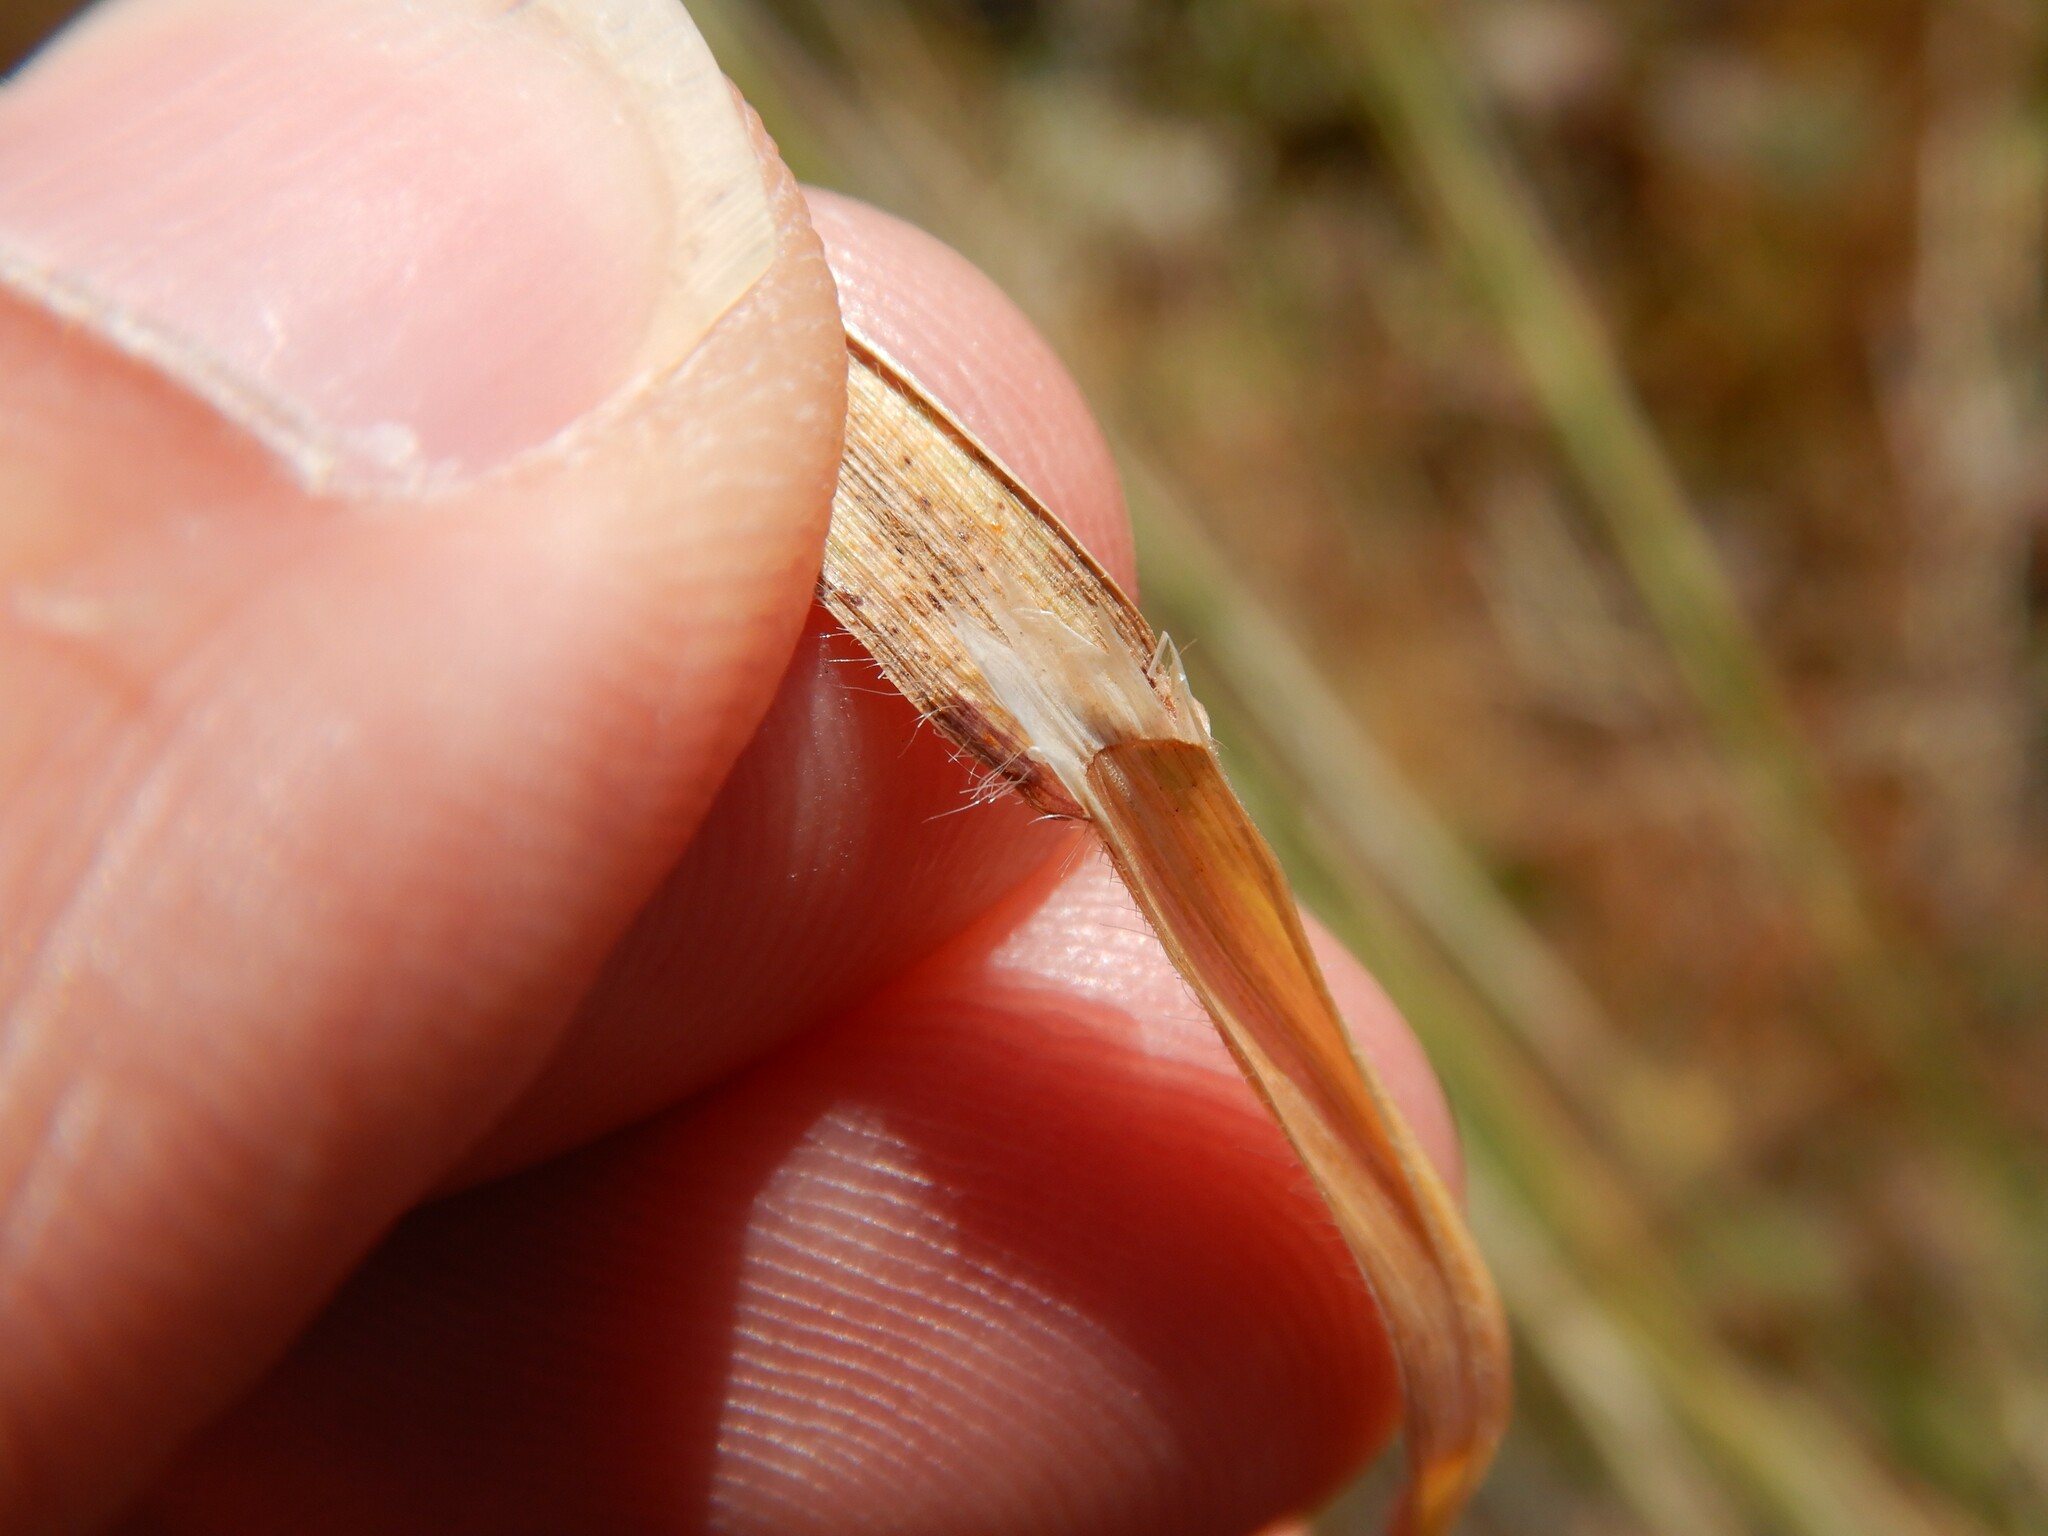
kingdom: Plantae
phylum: Tracheophyta
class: Liliopsida
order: Poales
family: Poaceae
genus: Bromus
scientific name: Bromus diandrus
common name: Ripgut brome
